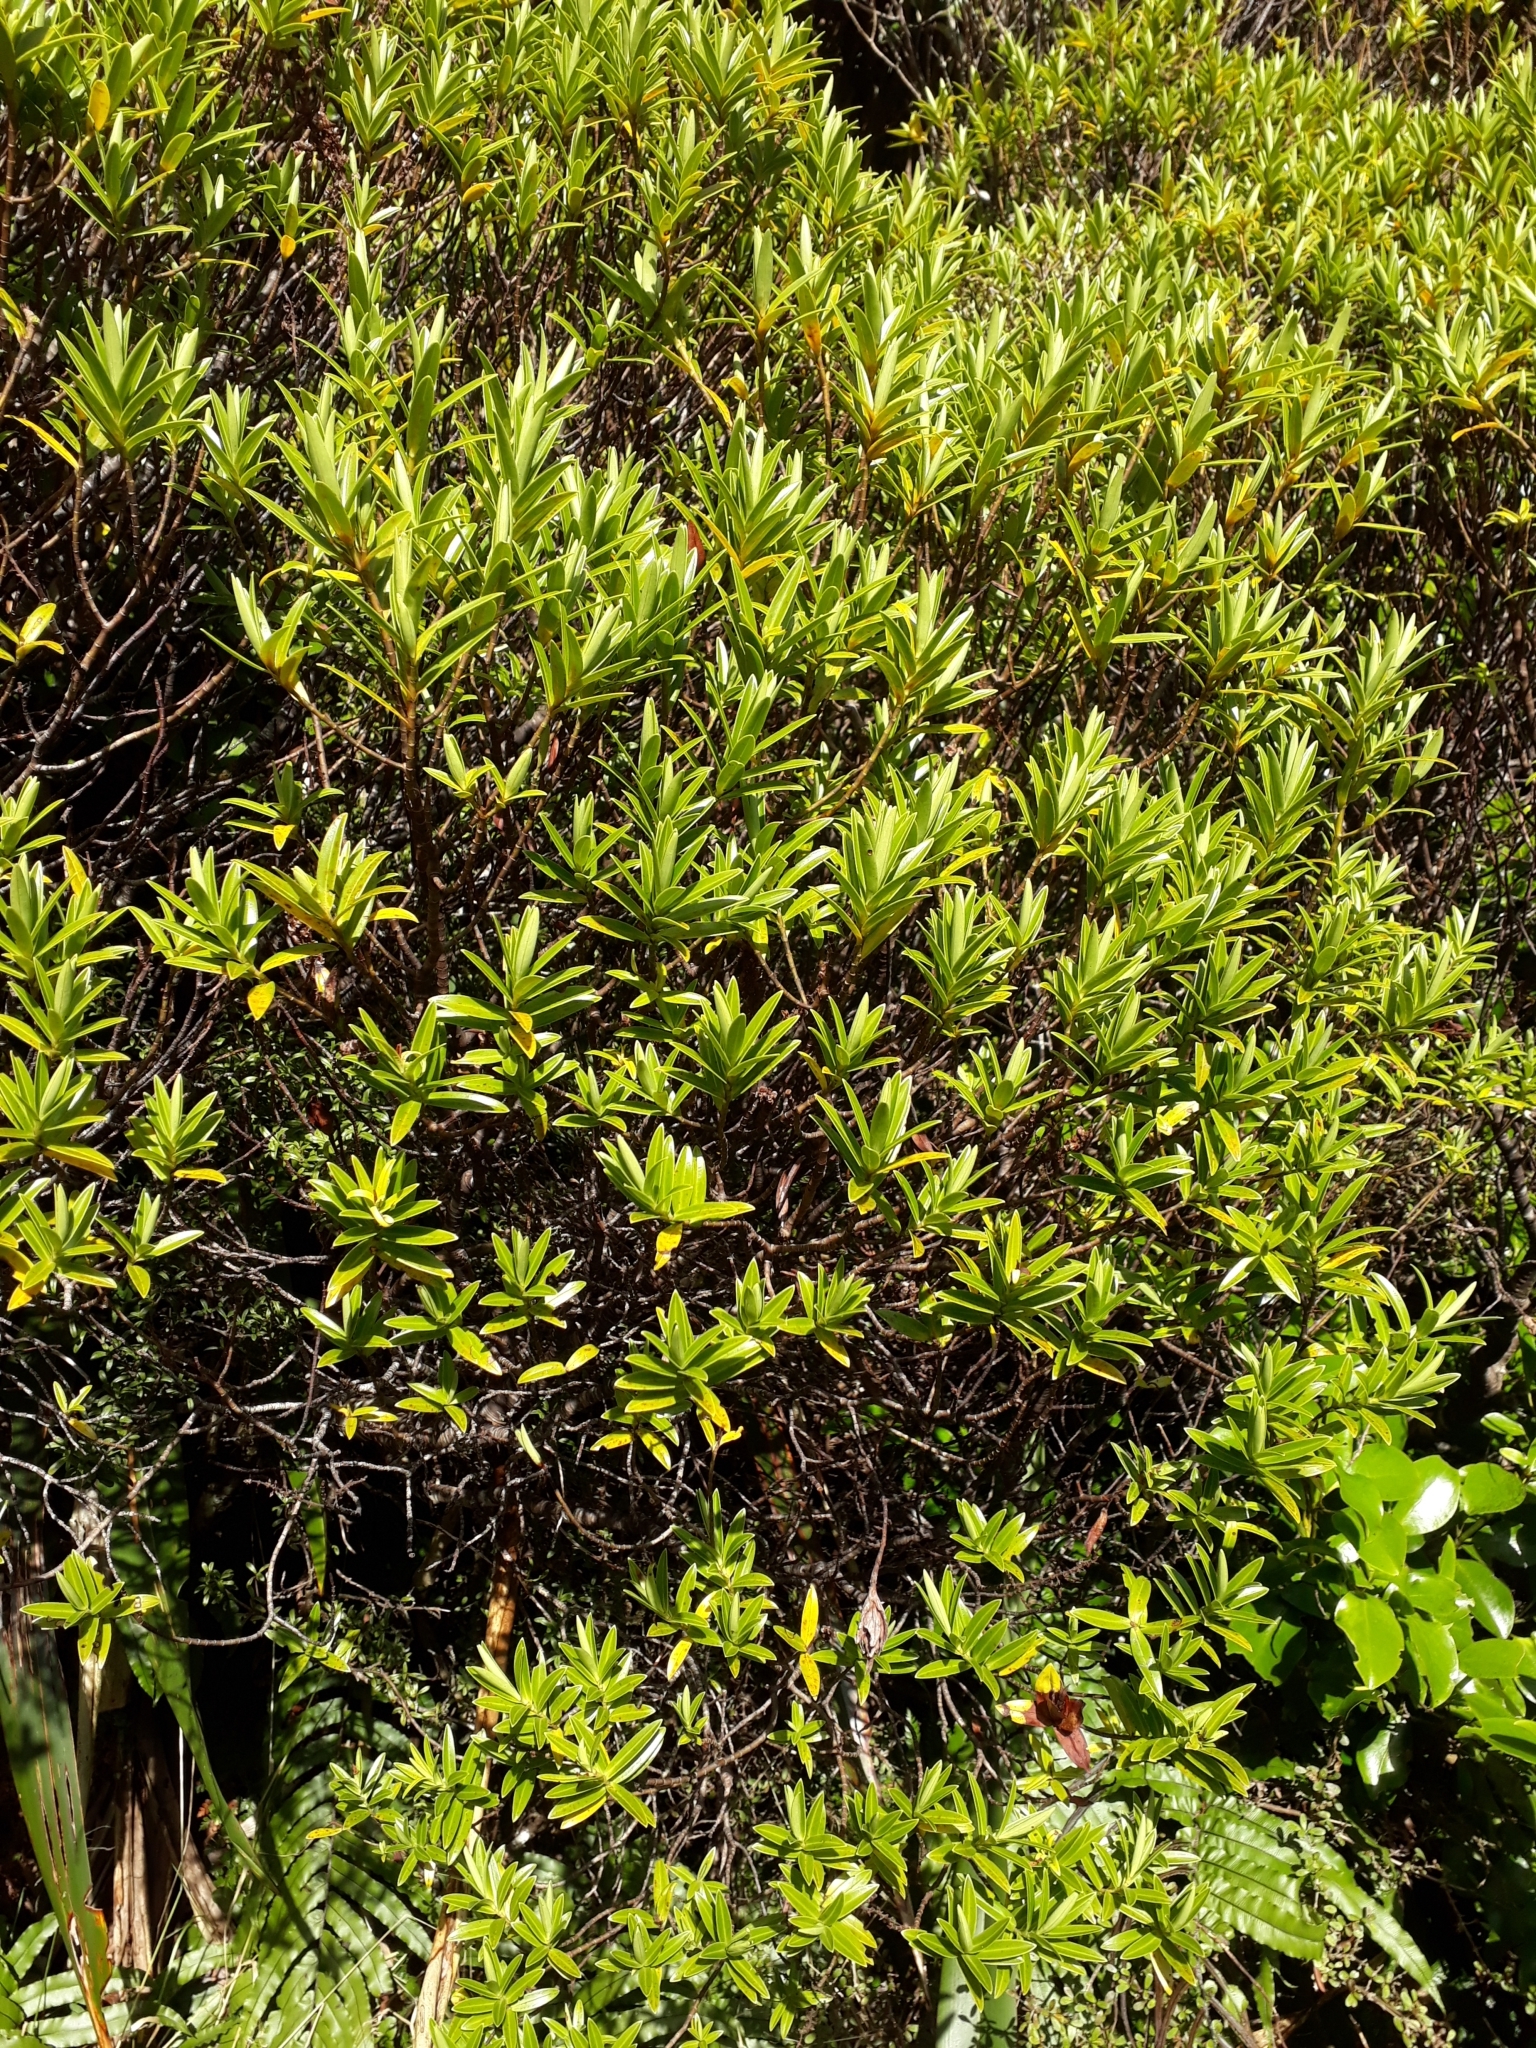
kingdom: Plantae
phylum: Tracheophyta
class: Magnoliopsida
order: Lamiales
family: Plantaginaceae
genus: Veronica
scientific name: Veronica truncatula
